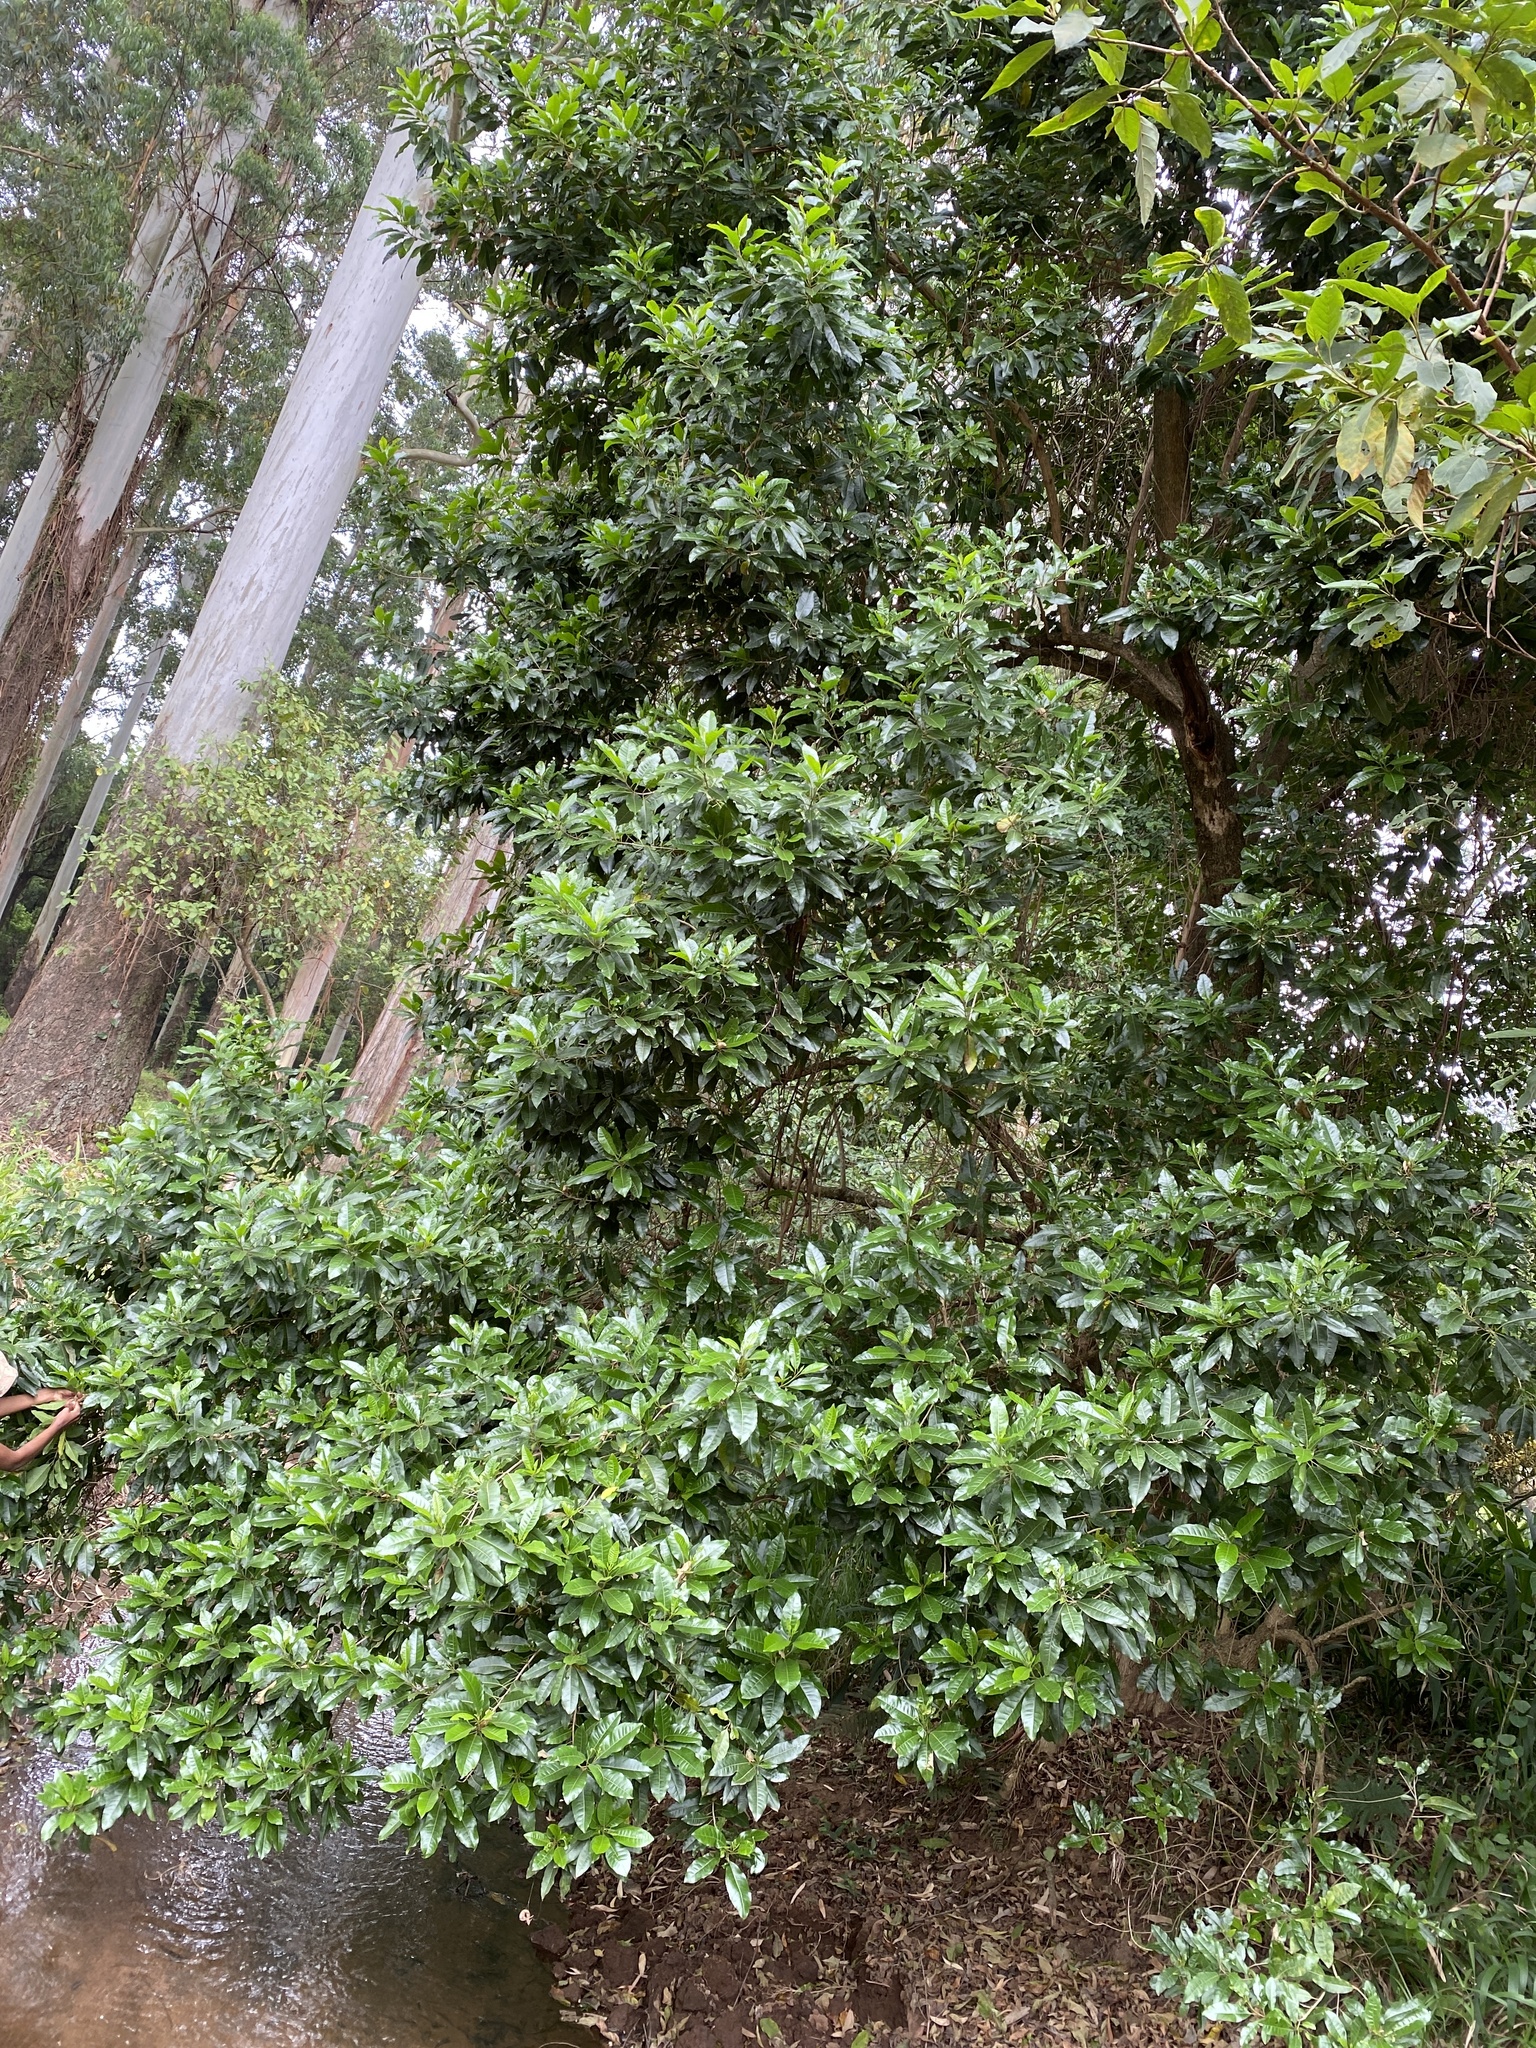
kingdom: Plantae
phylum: Tracheophyta
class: Magnoliopsida
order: Lamiales
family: Stilbaceae
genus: Nuxia
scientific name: Nuxia floribunda
